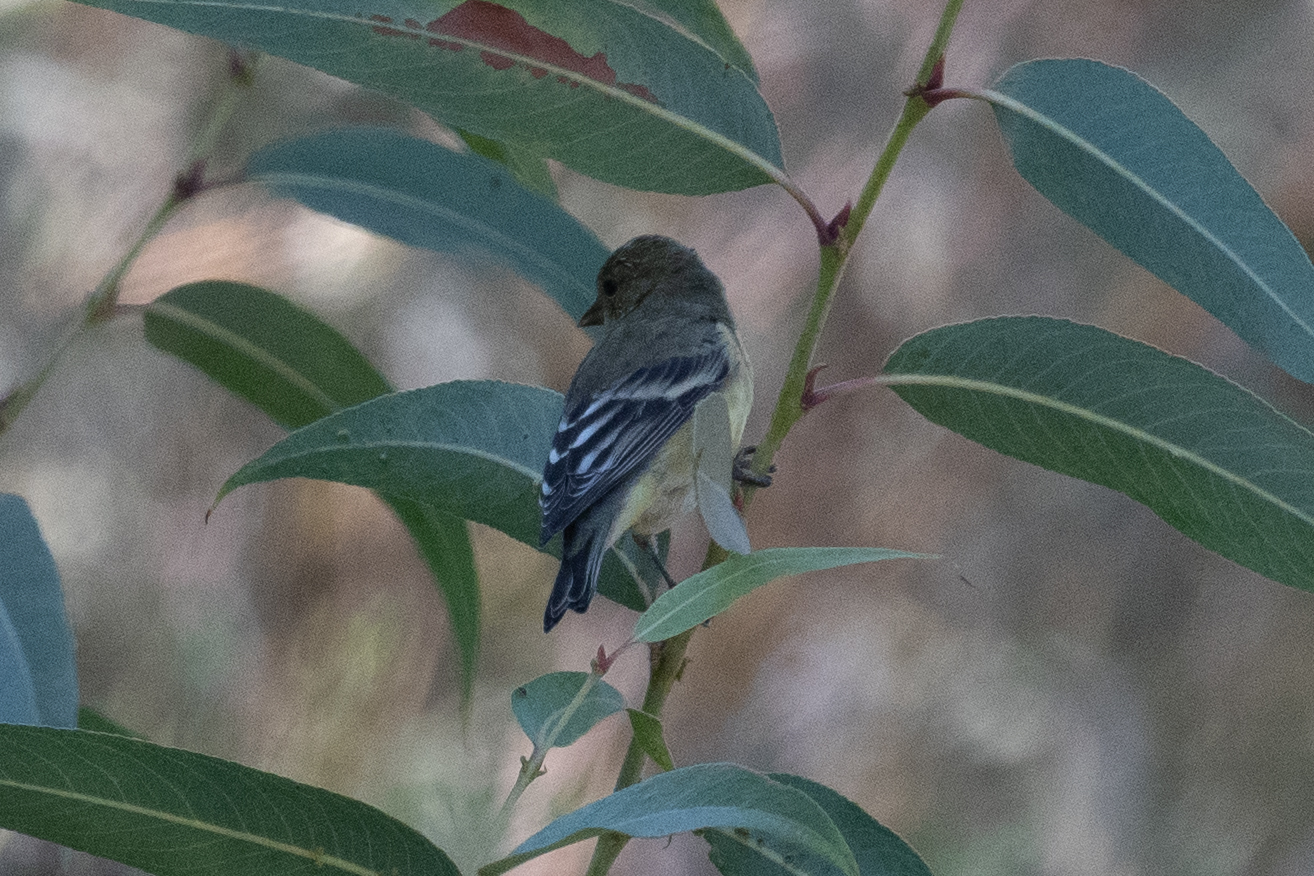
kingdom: Animalia
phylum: Chordata
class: Aves
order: Passeriformes
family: Fringillidae
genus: Spinus
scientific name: Spinus psaltria
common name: Lesser goldfinch
